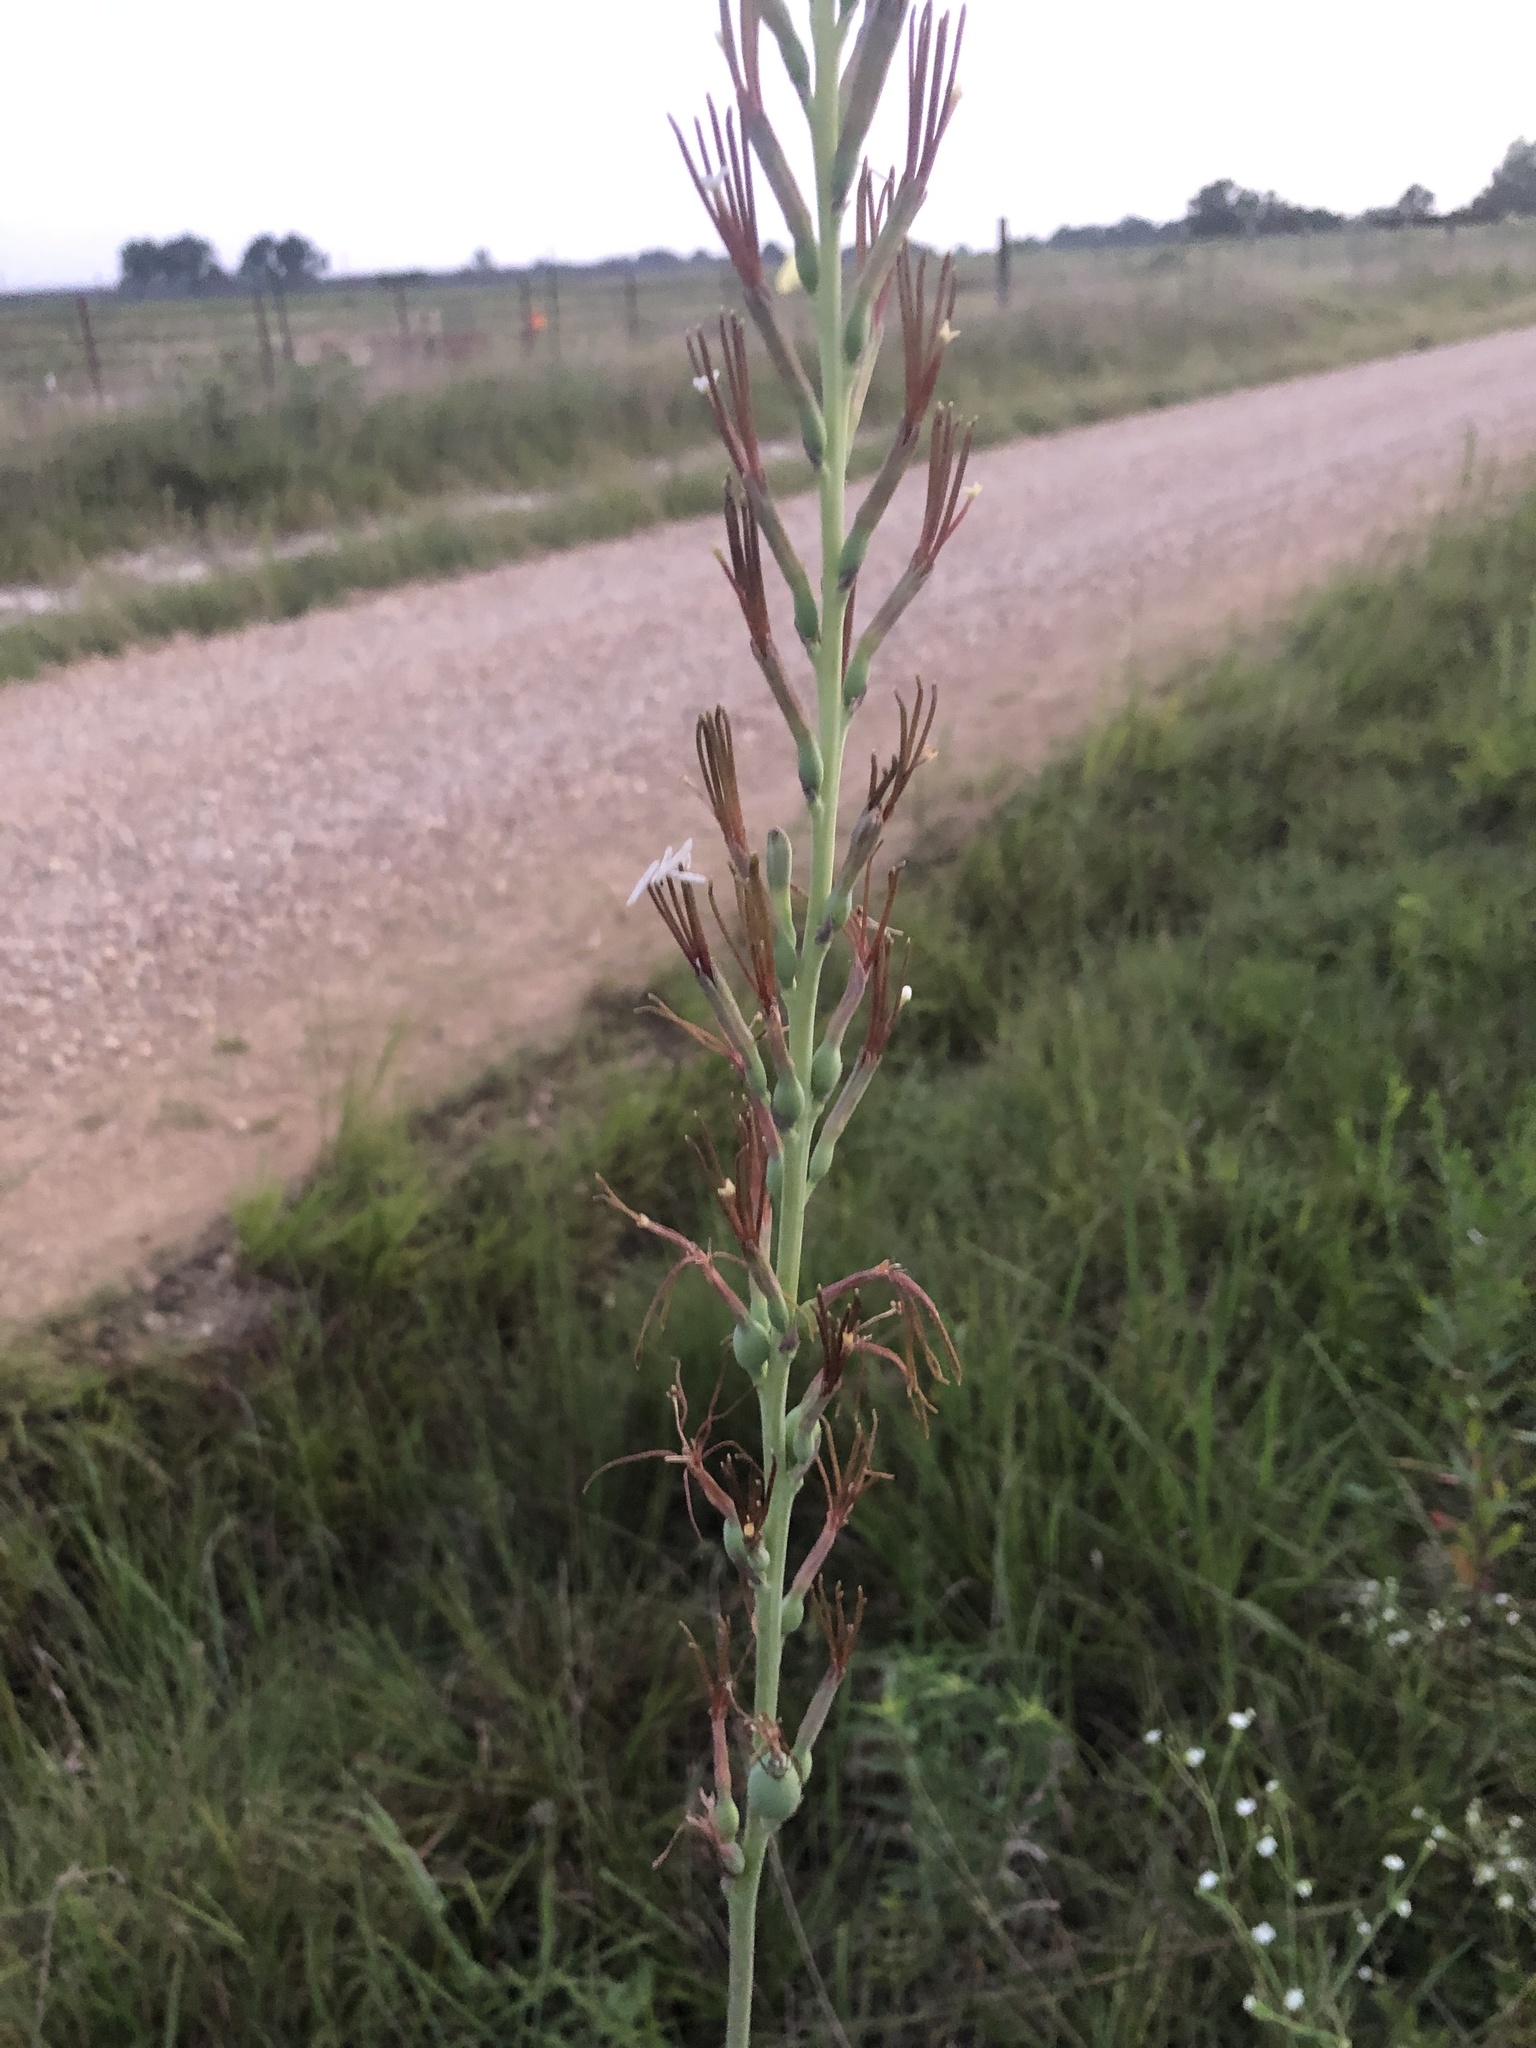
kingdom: Plantae
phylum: Tracheophyta
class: Liliopsida
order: Asparagales
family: Asparagaceae
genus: Agave
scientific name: Agave virginica
